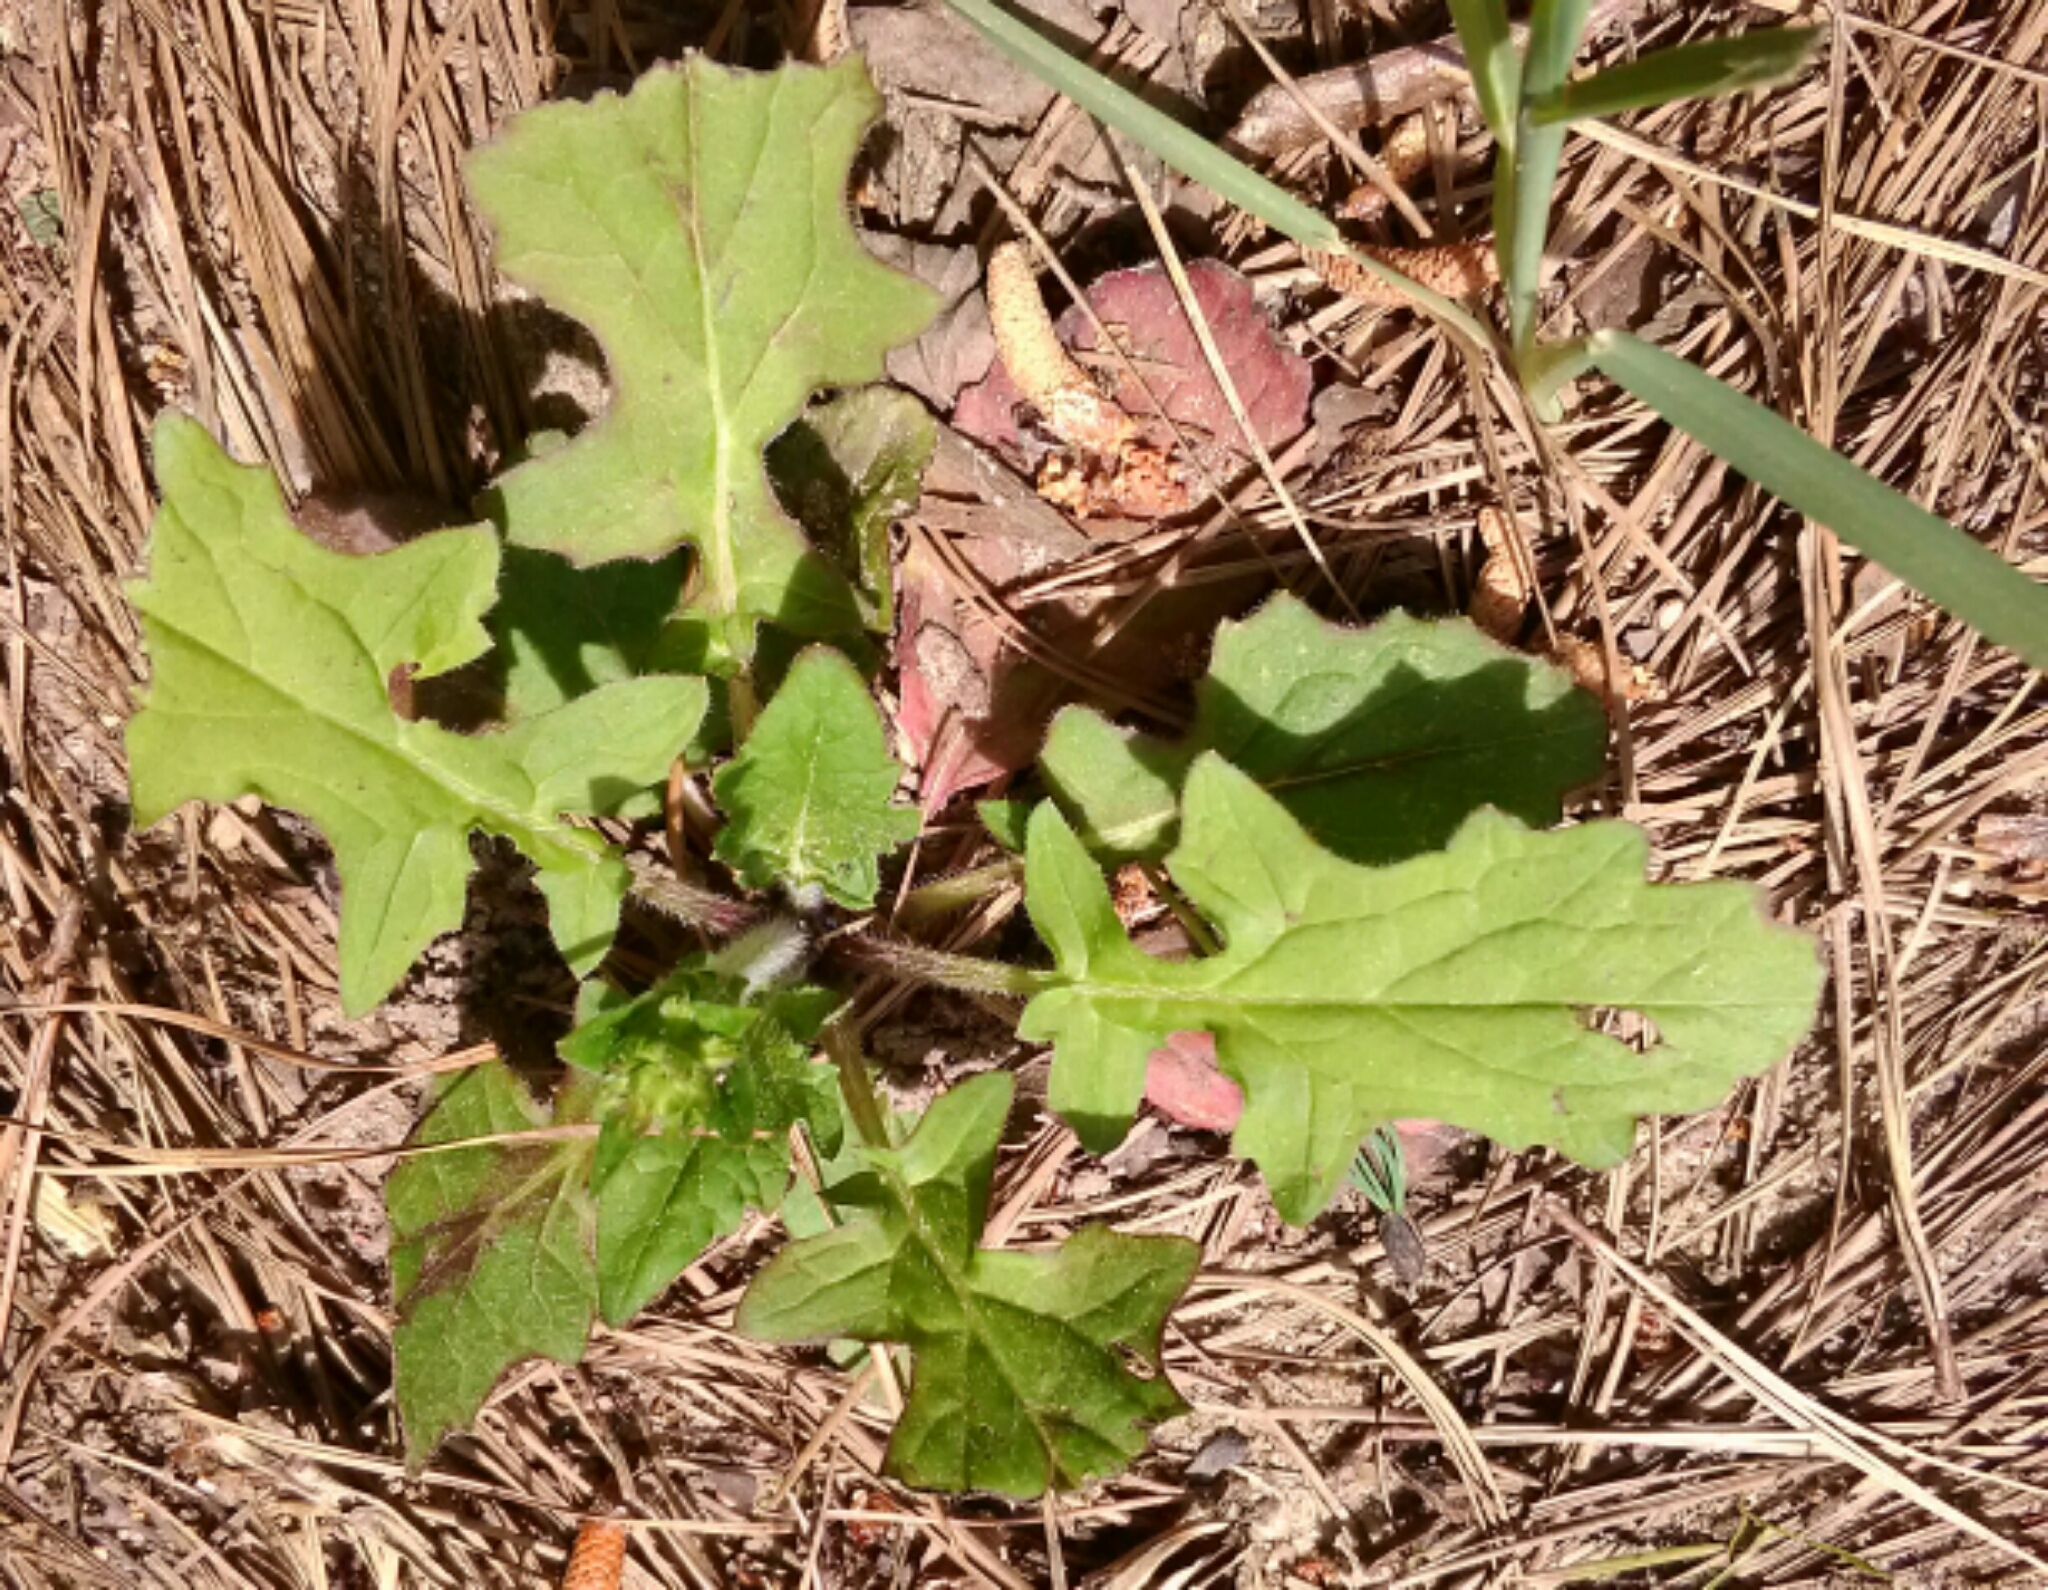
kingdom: Plantae
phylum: Tracheophyta
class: Magnoliopsida
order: Lamiales
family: Lamiaceae
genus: Salvia
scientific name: Salvia lyrata
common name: Cancerweed
